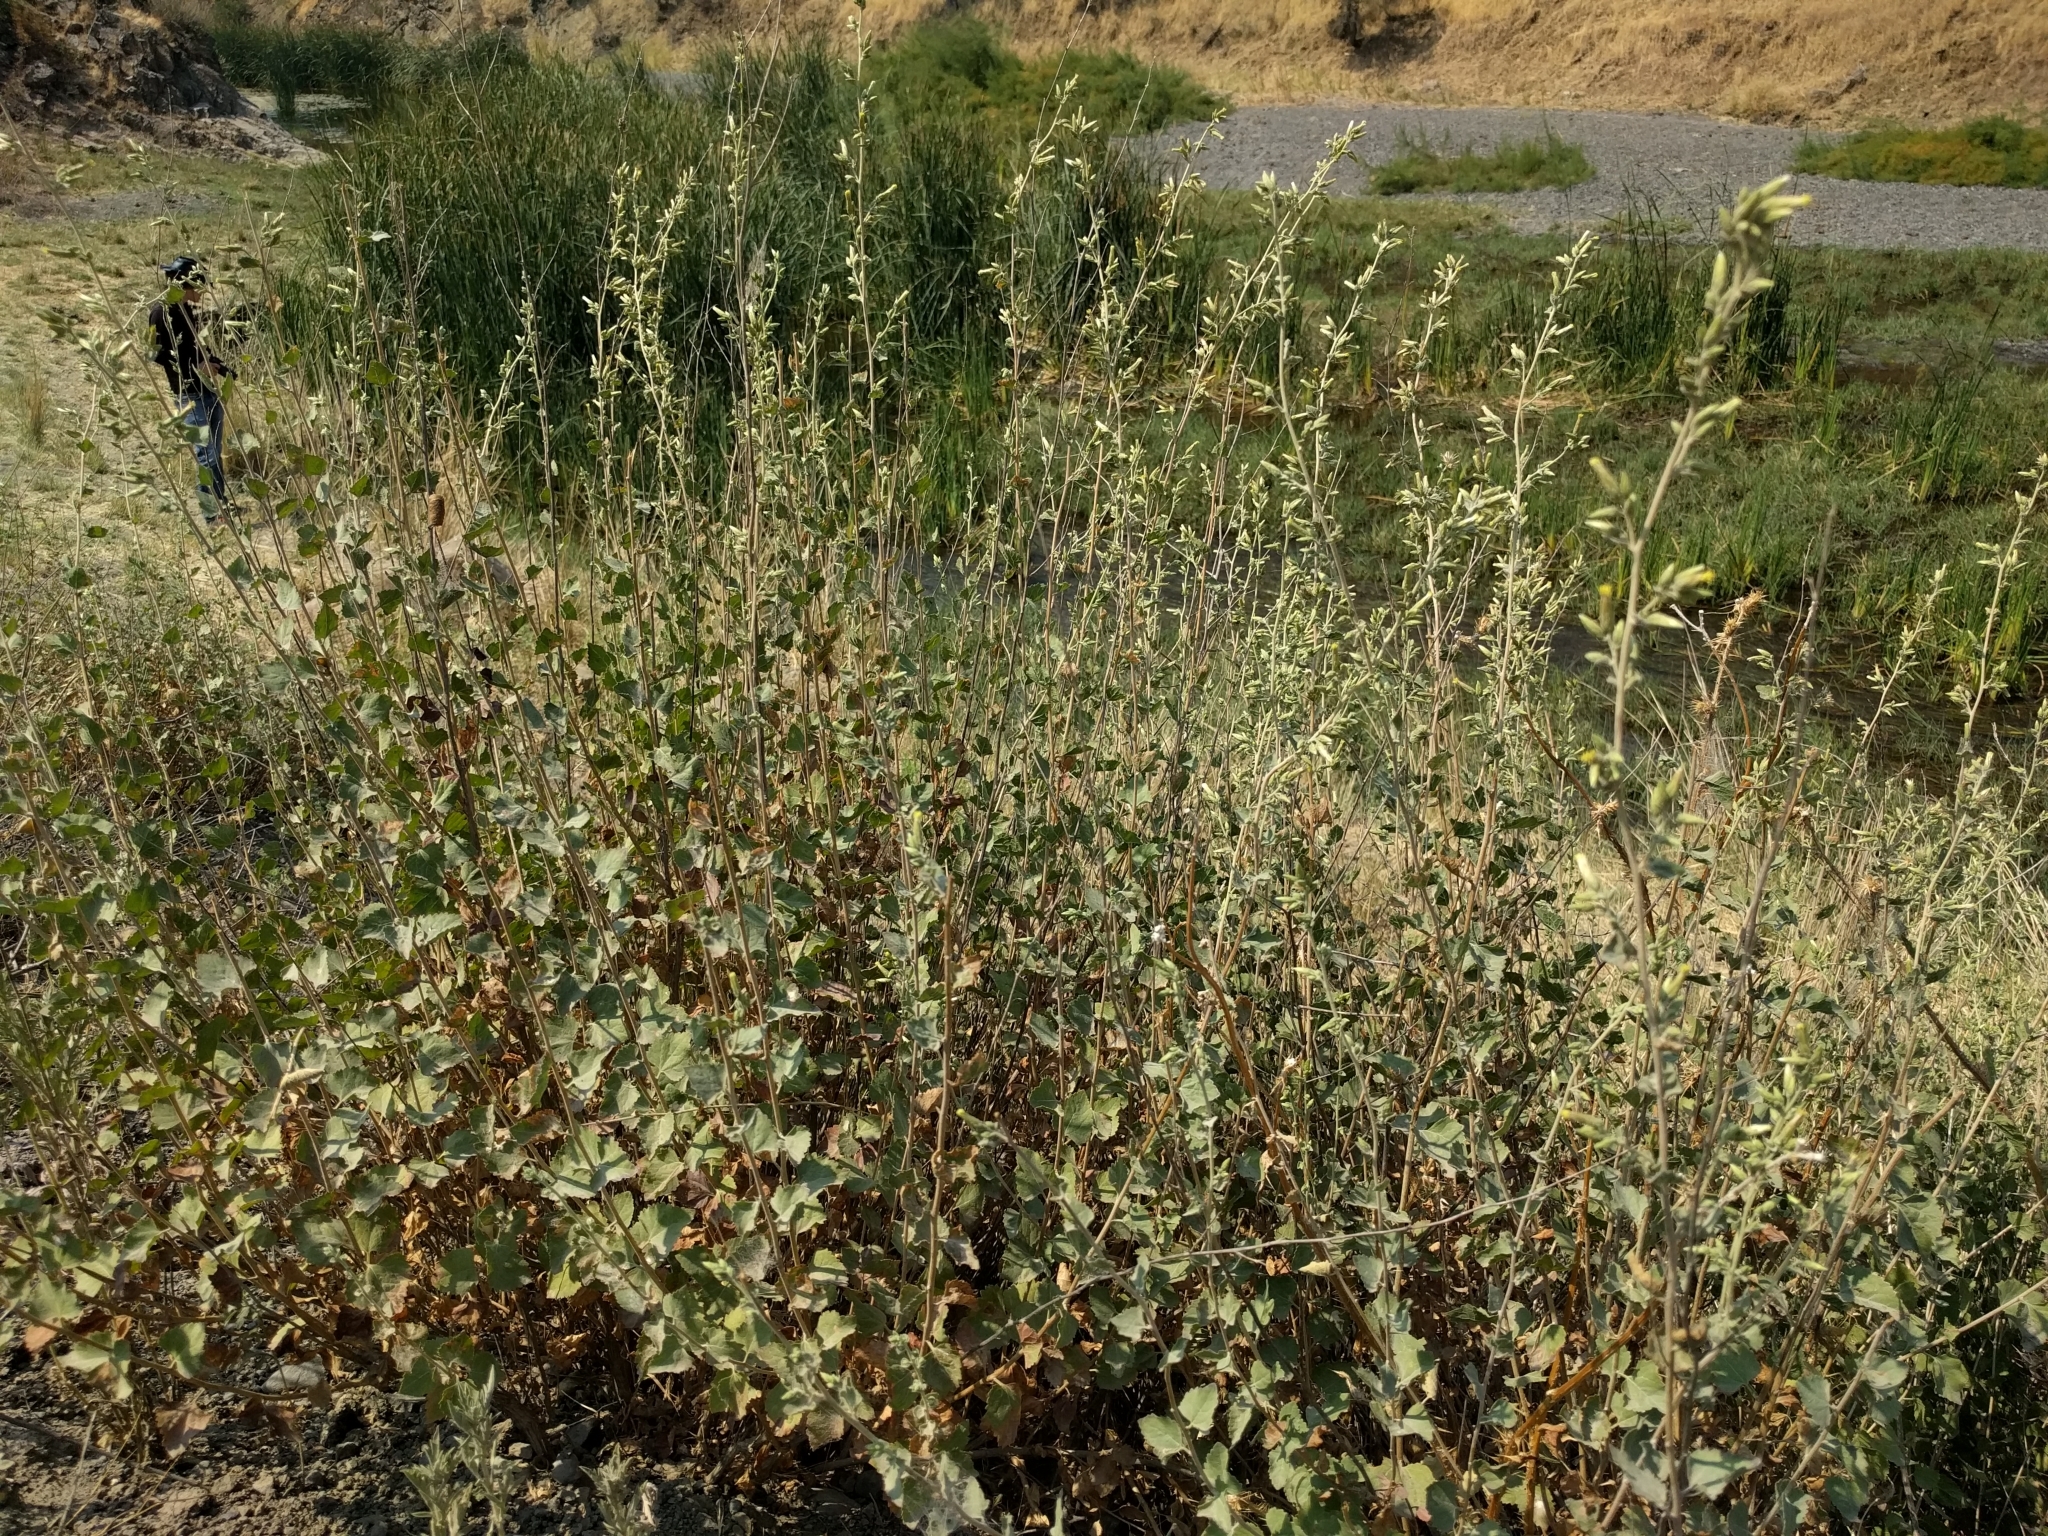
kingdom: Plantae
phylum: Tracheophyta
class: Magnoliopsida
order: Asterales
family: Asteraceae
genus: Brickellia
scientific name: Brickellia californica
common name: California brickellbush
